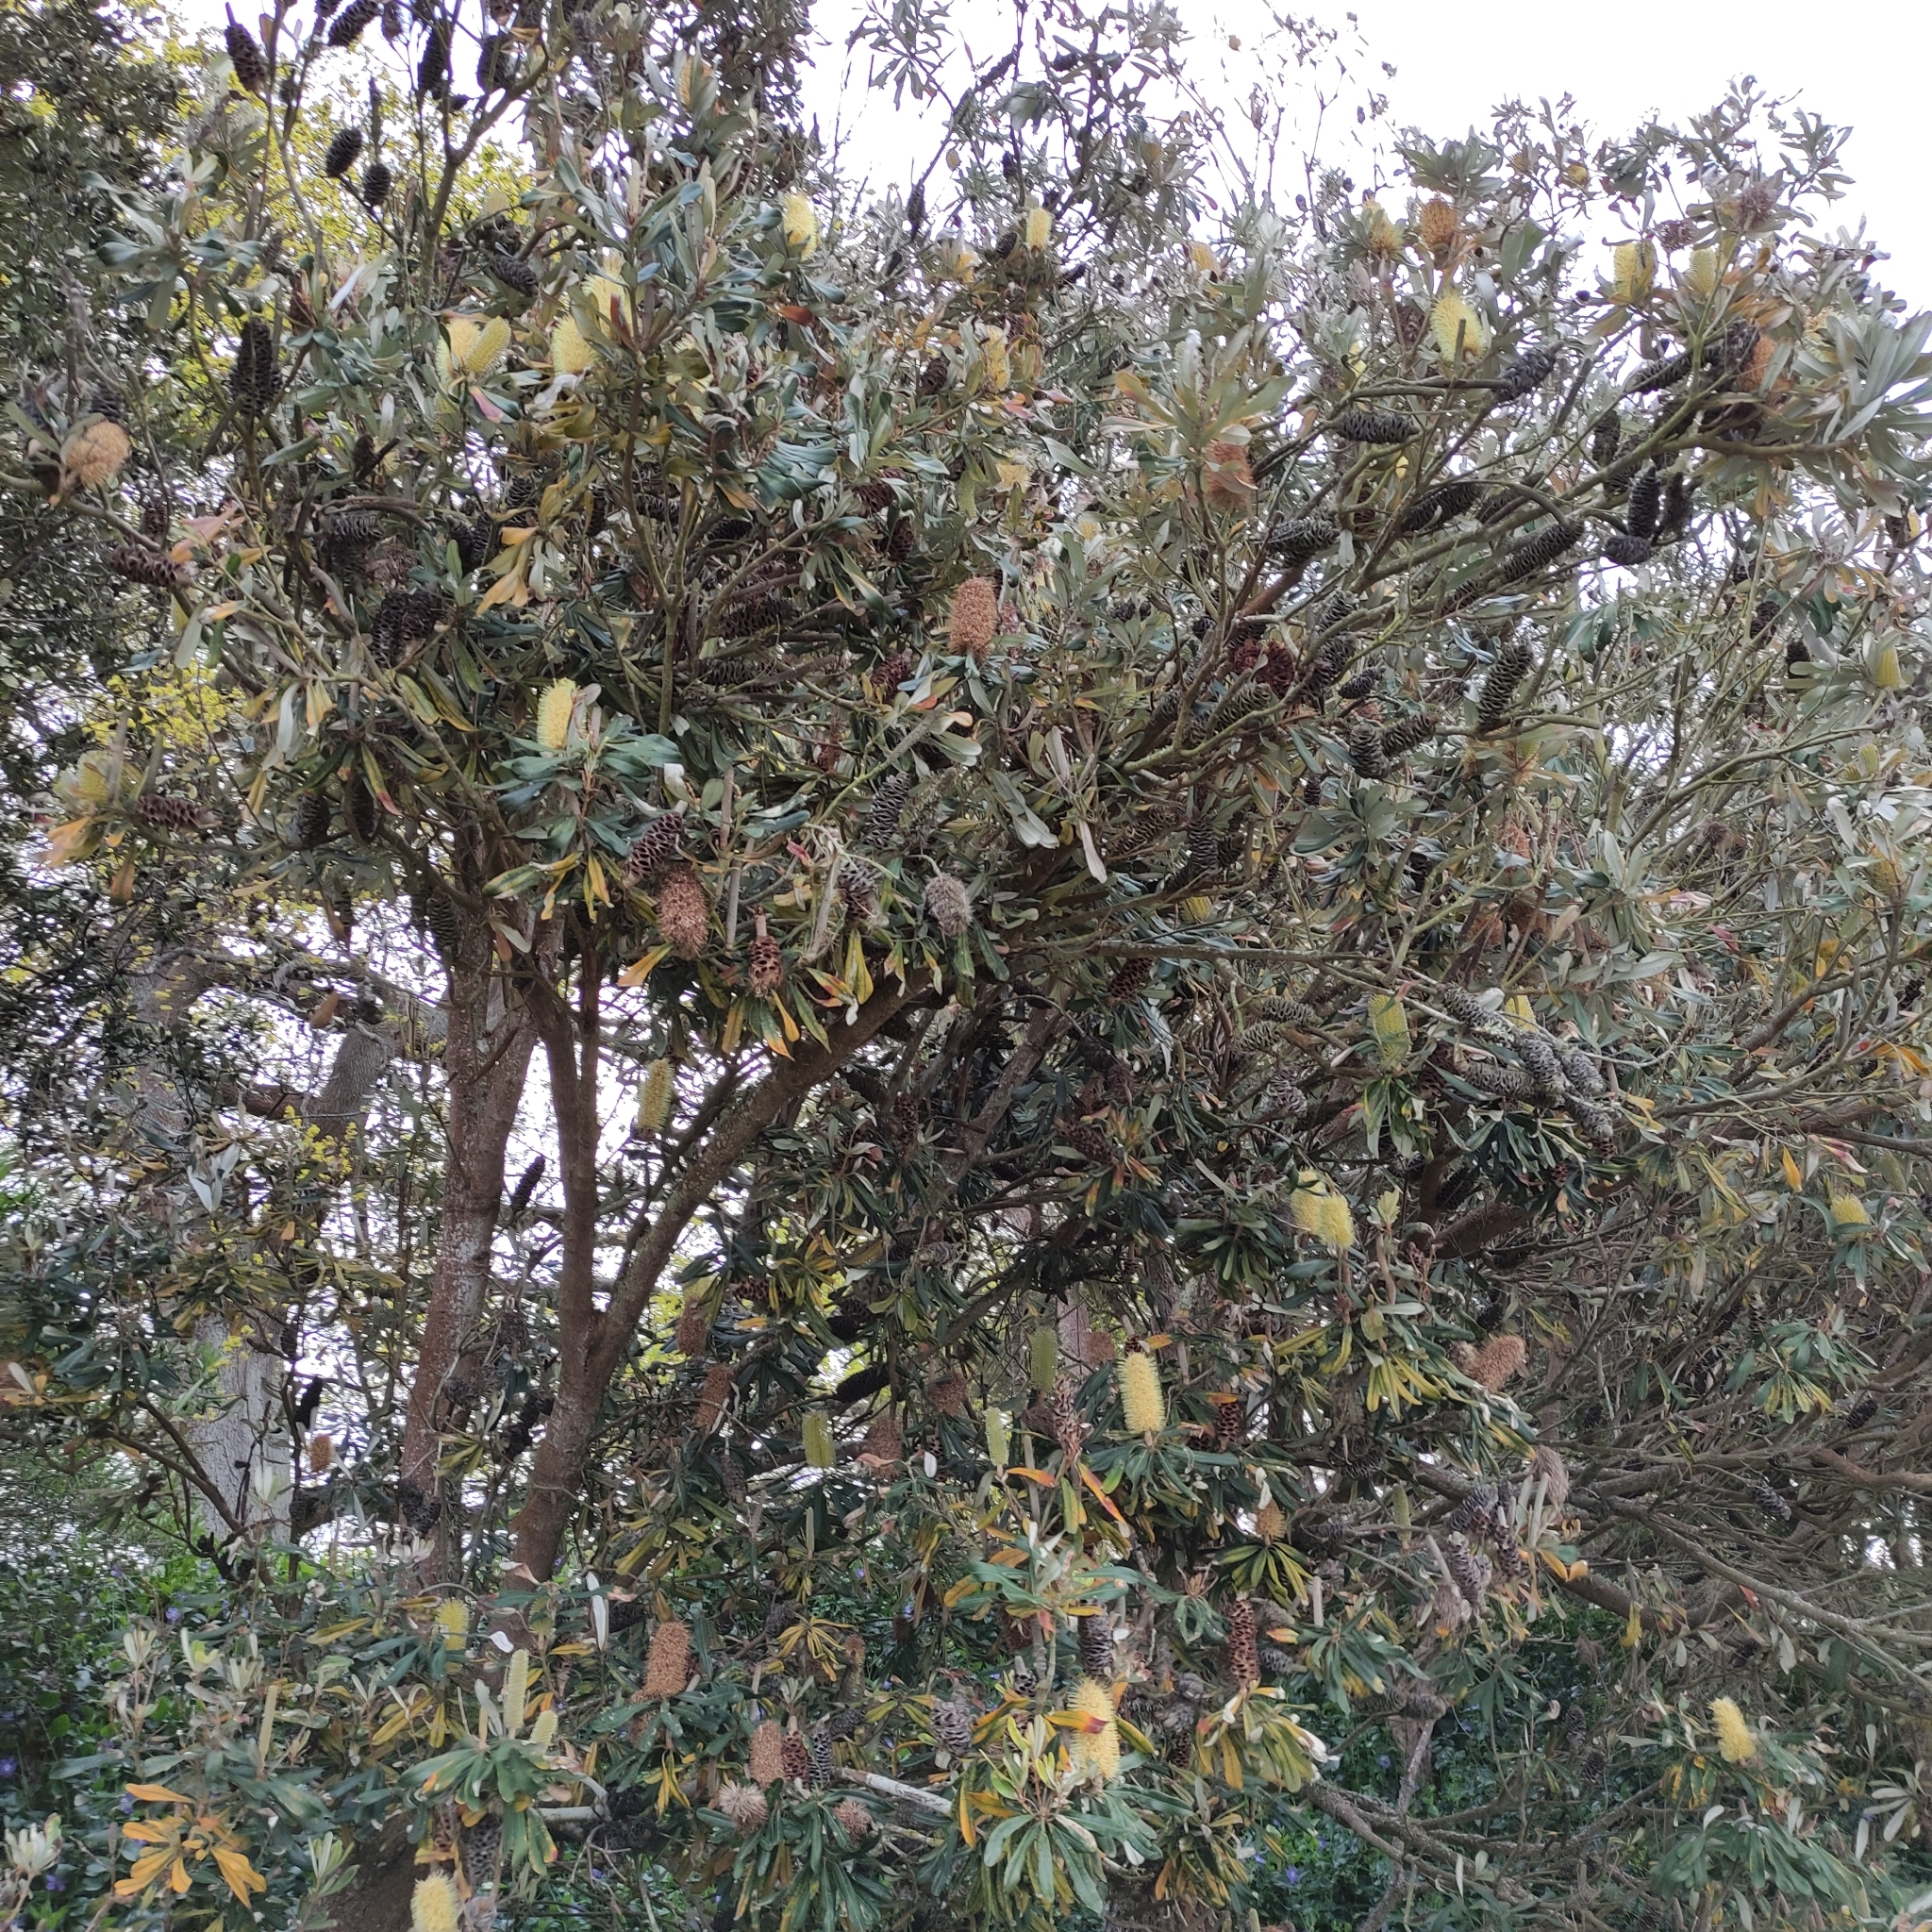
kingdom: Plantae
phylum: Tracheophyta
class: Magnoliopsida
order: Proteales
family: Proteaceae
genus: Banksia
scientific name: Banksia integrifolia
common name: White-honeysuckle
